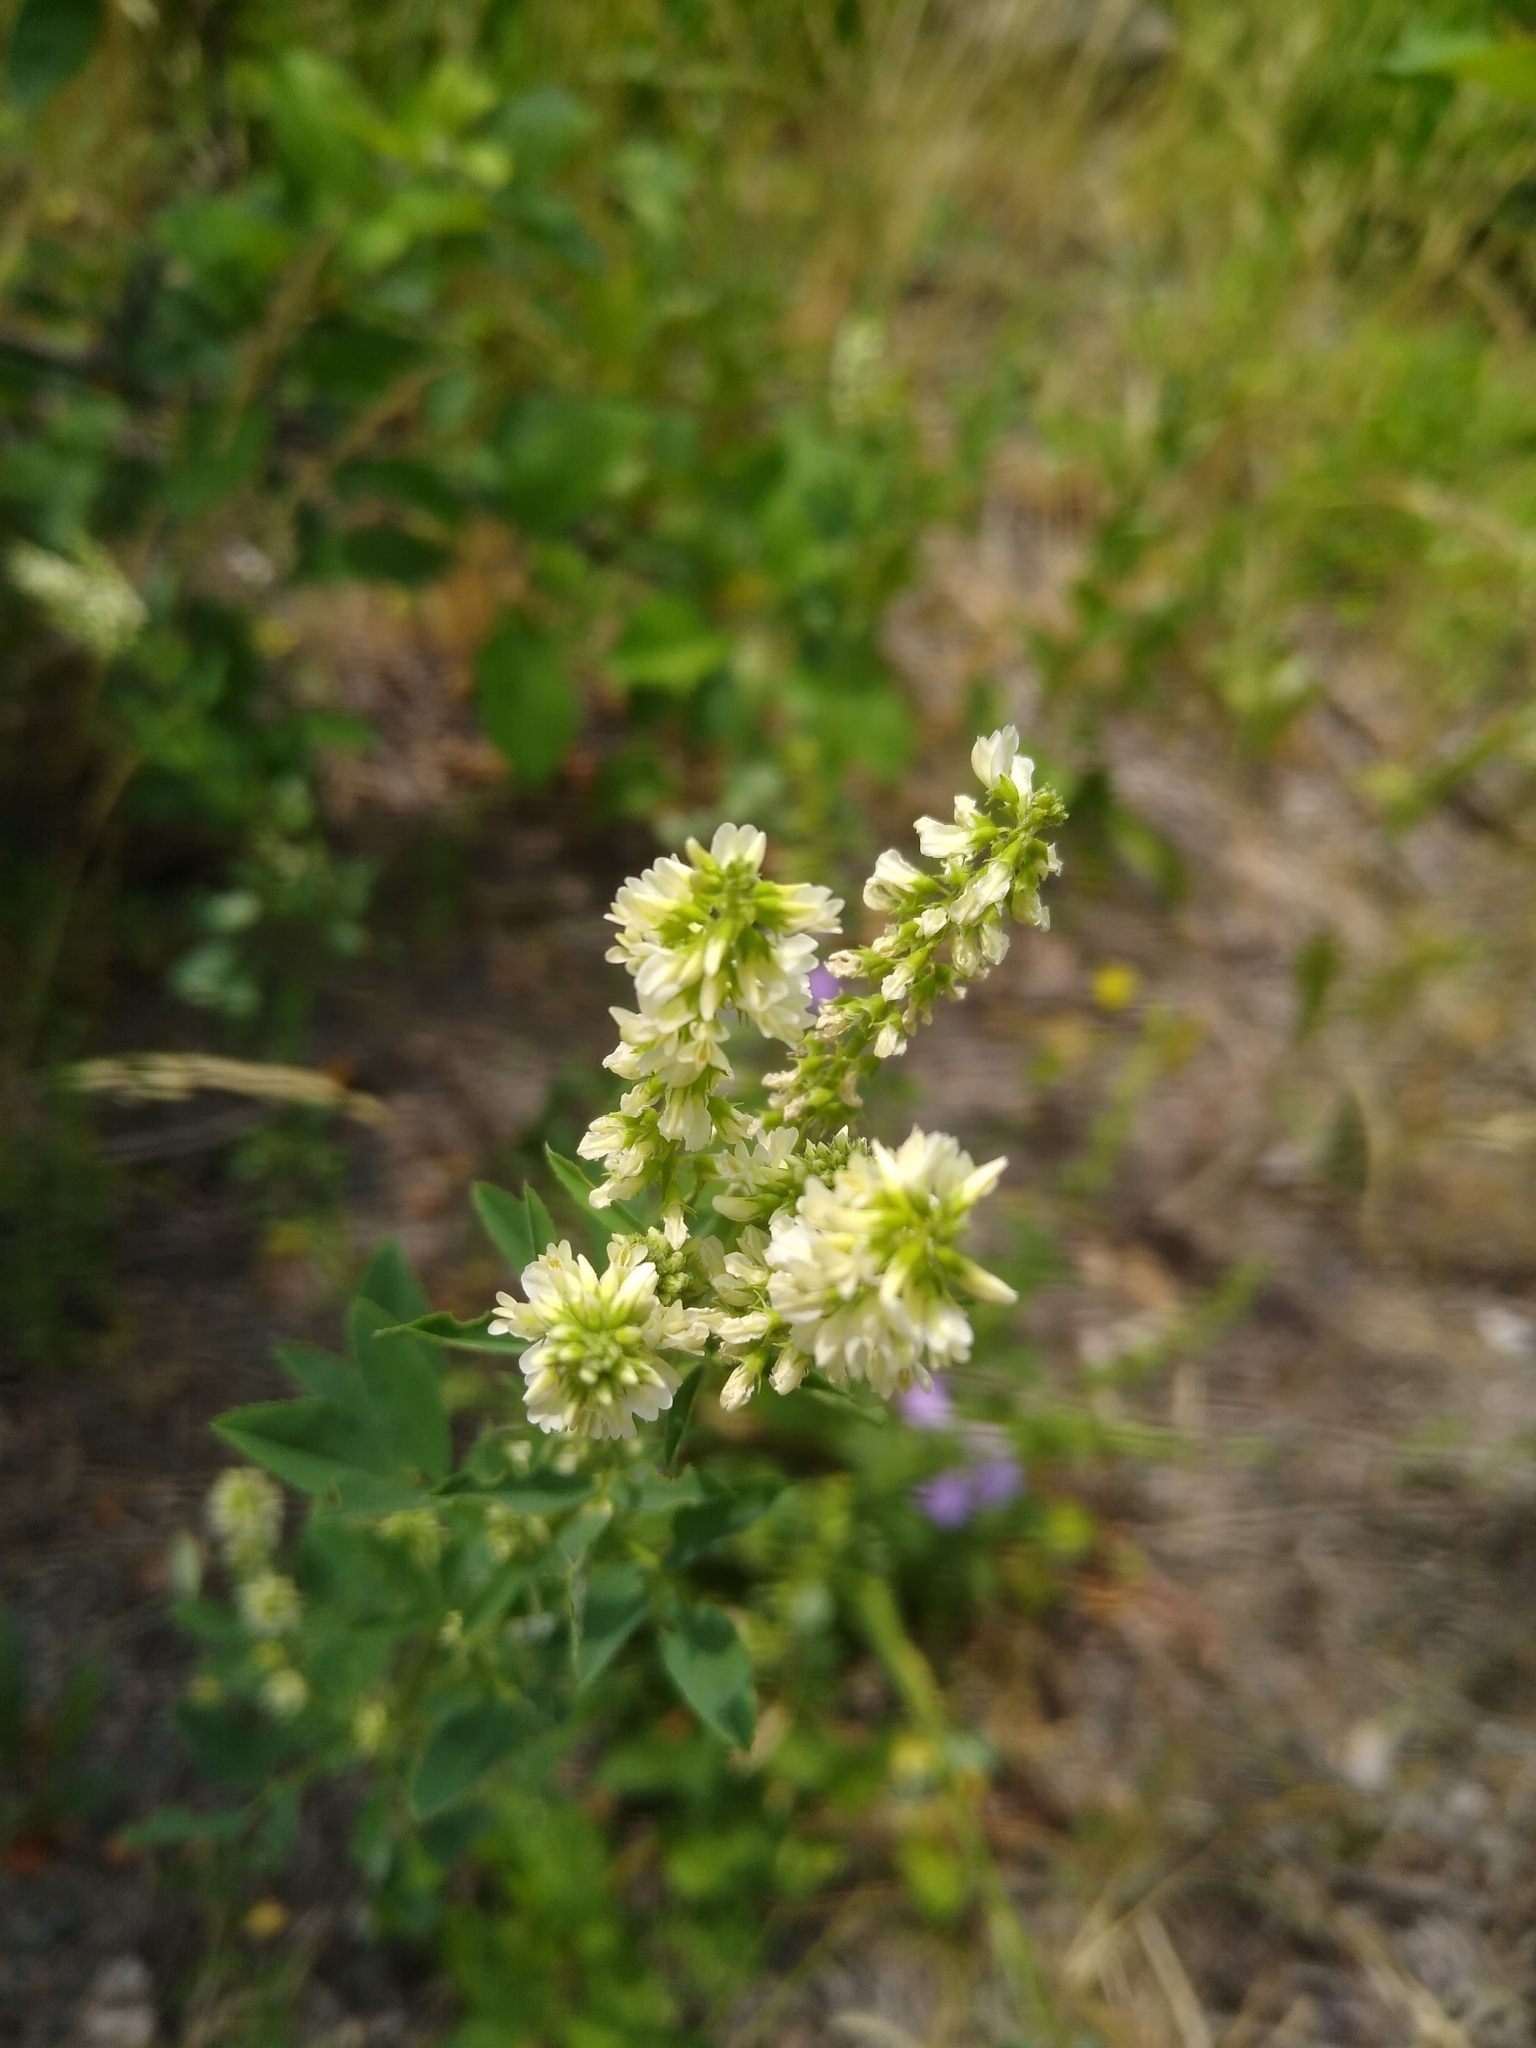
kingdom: Plantae
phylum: Tracheophyta
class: Magnoliopsida
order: Fabales
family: Fabaceae
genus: Melilotus
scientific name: Melilotus albus
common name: White melilot
